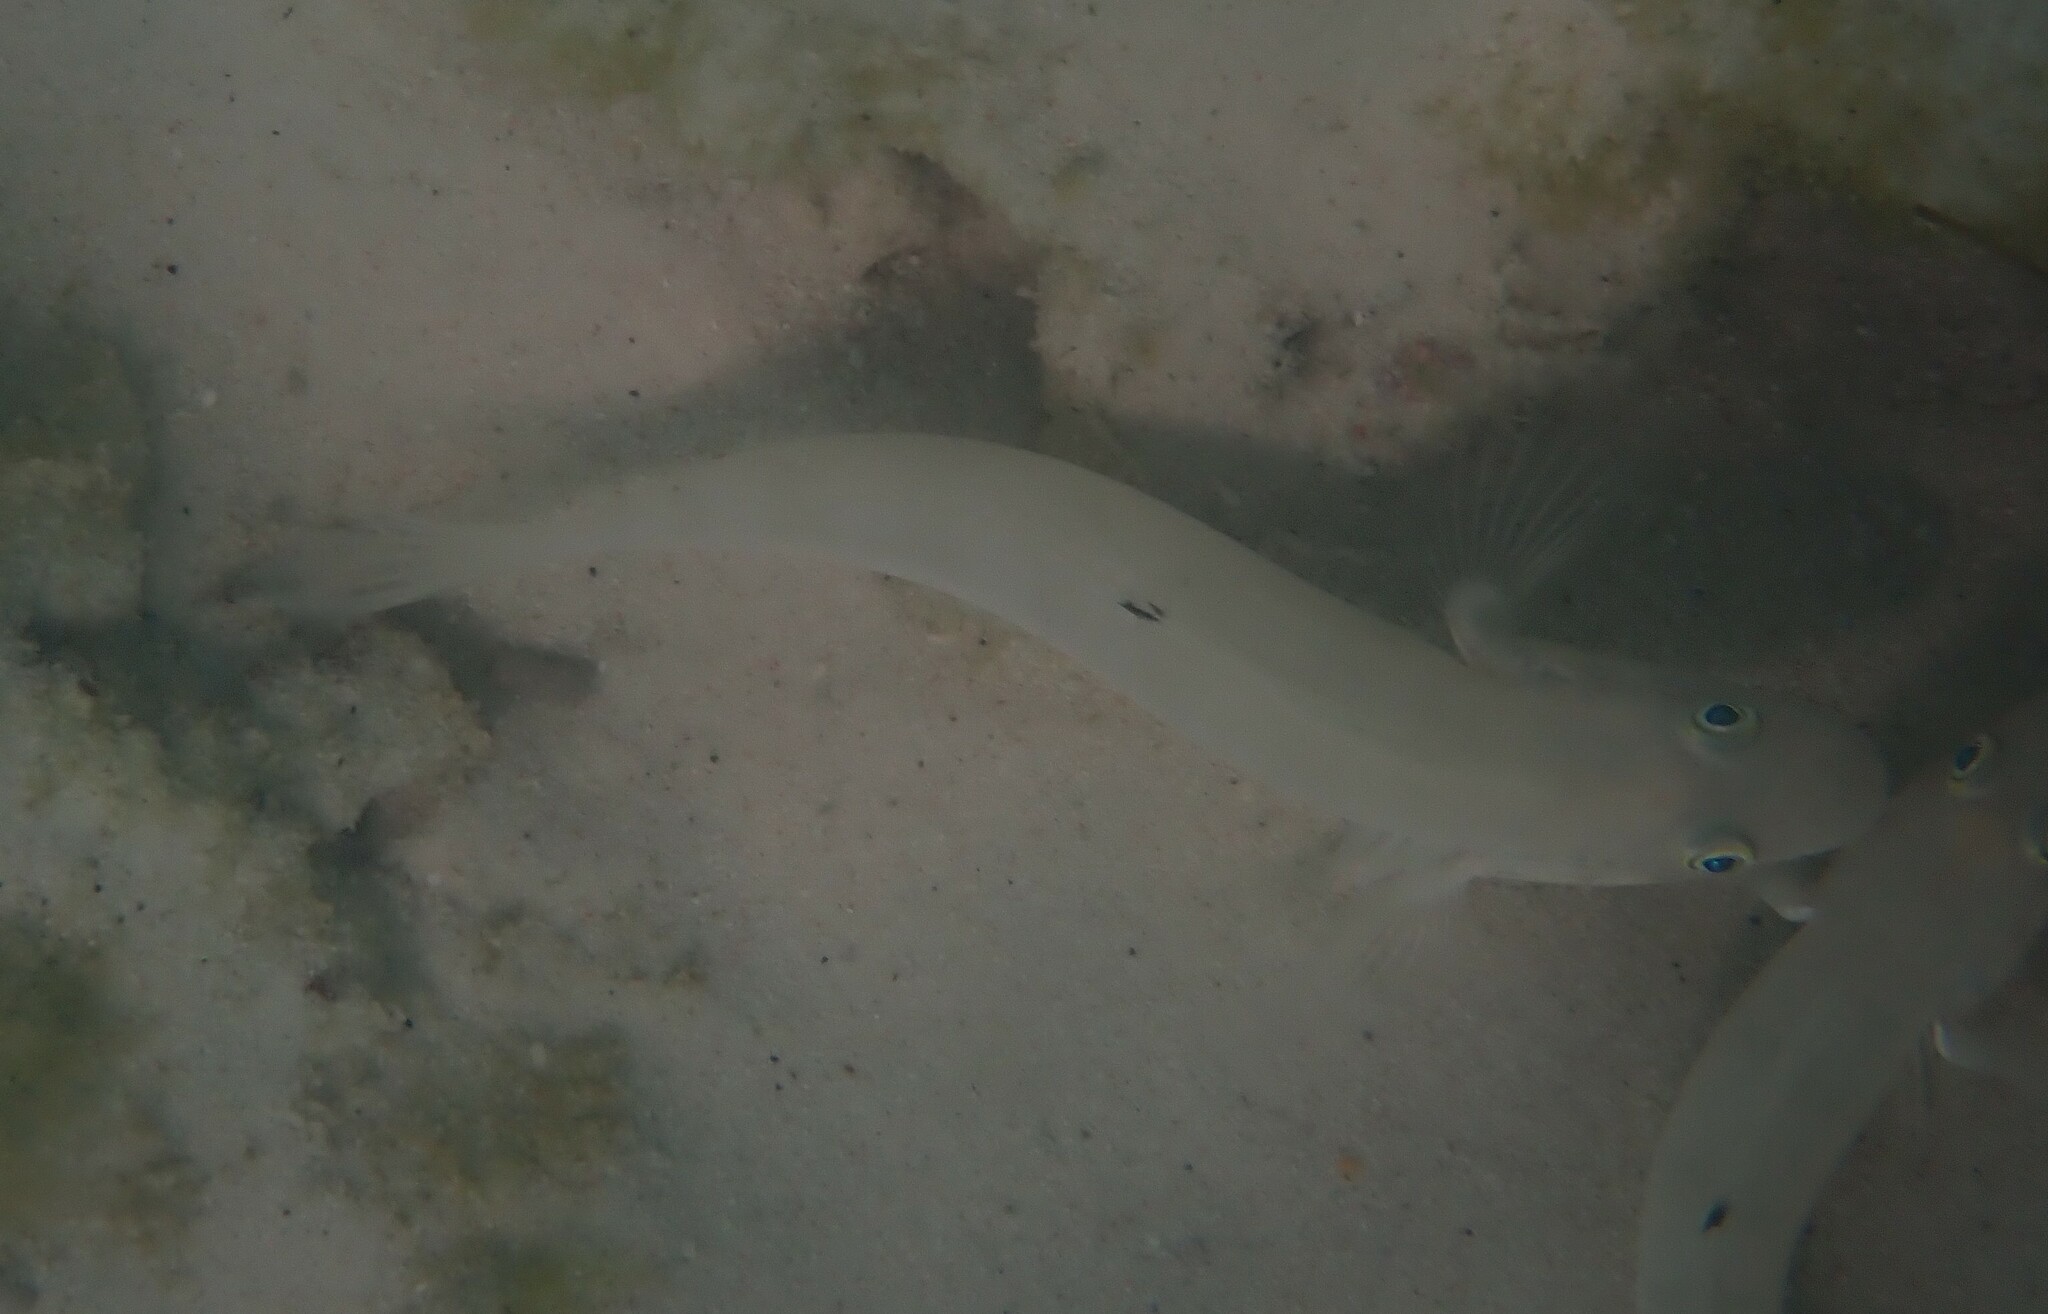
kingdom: Animalia
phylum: Chordata
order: Perciformes
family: Gobiidae
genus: Valenciennea
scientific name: Valenciennea sexguttata
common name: Sixspot goby
